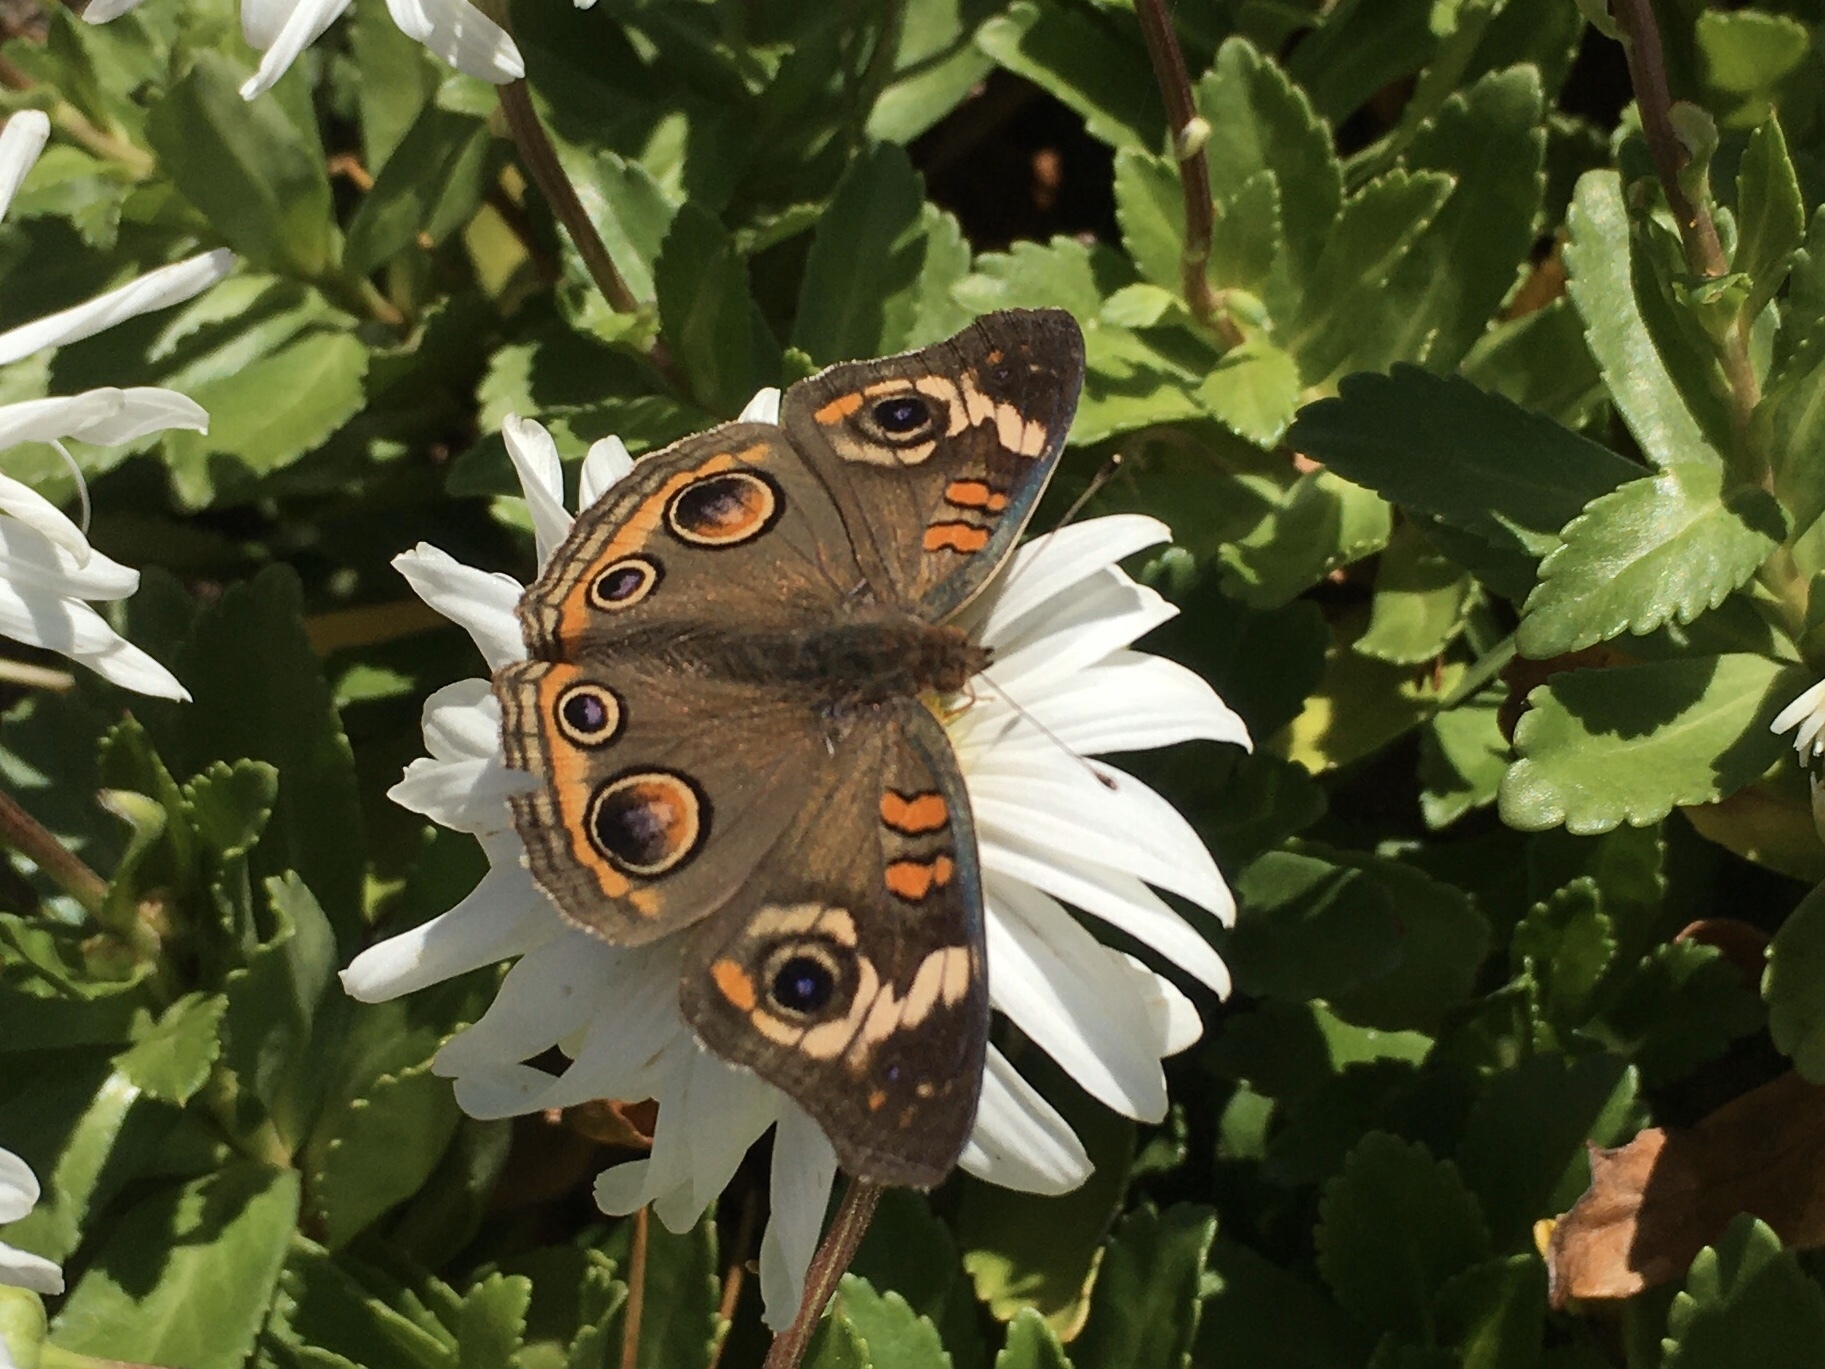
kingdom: Animalia
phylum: Arthropoda
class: Insecta
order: Lepidoptera
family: Nymphalidae
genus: Junonia
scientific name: Junonia coenia
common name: Common buckeye
